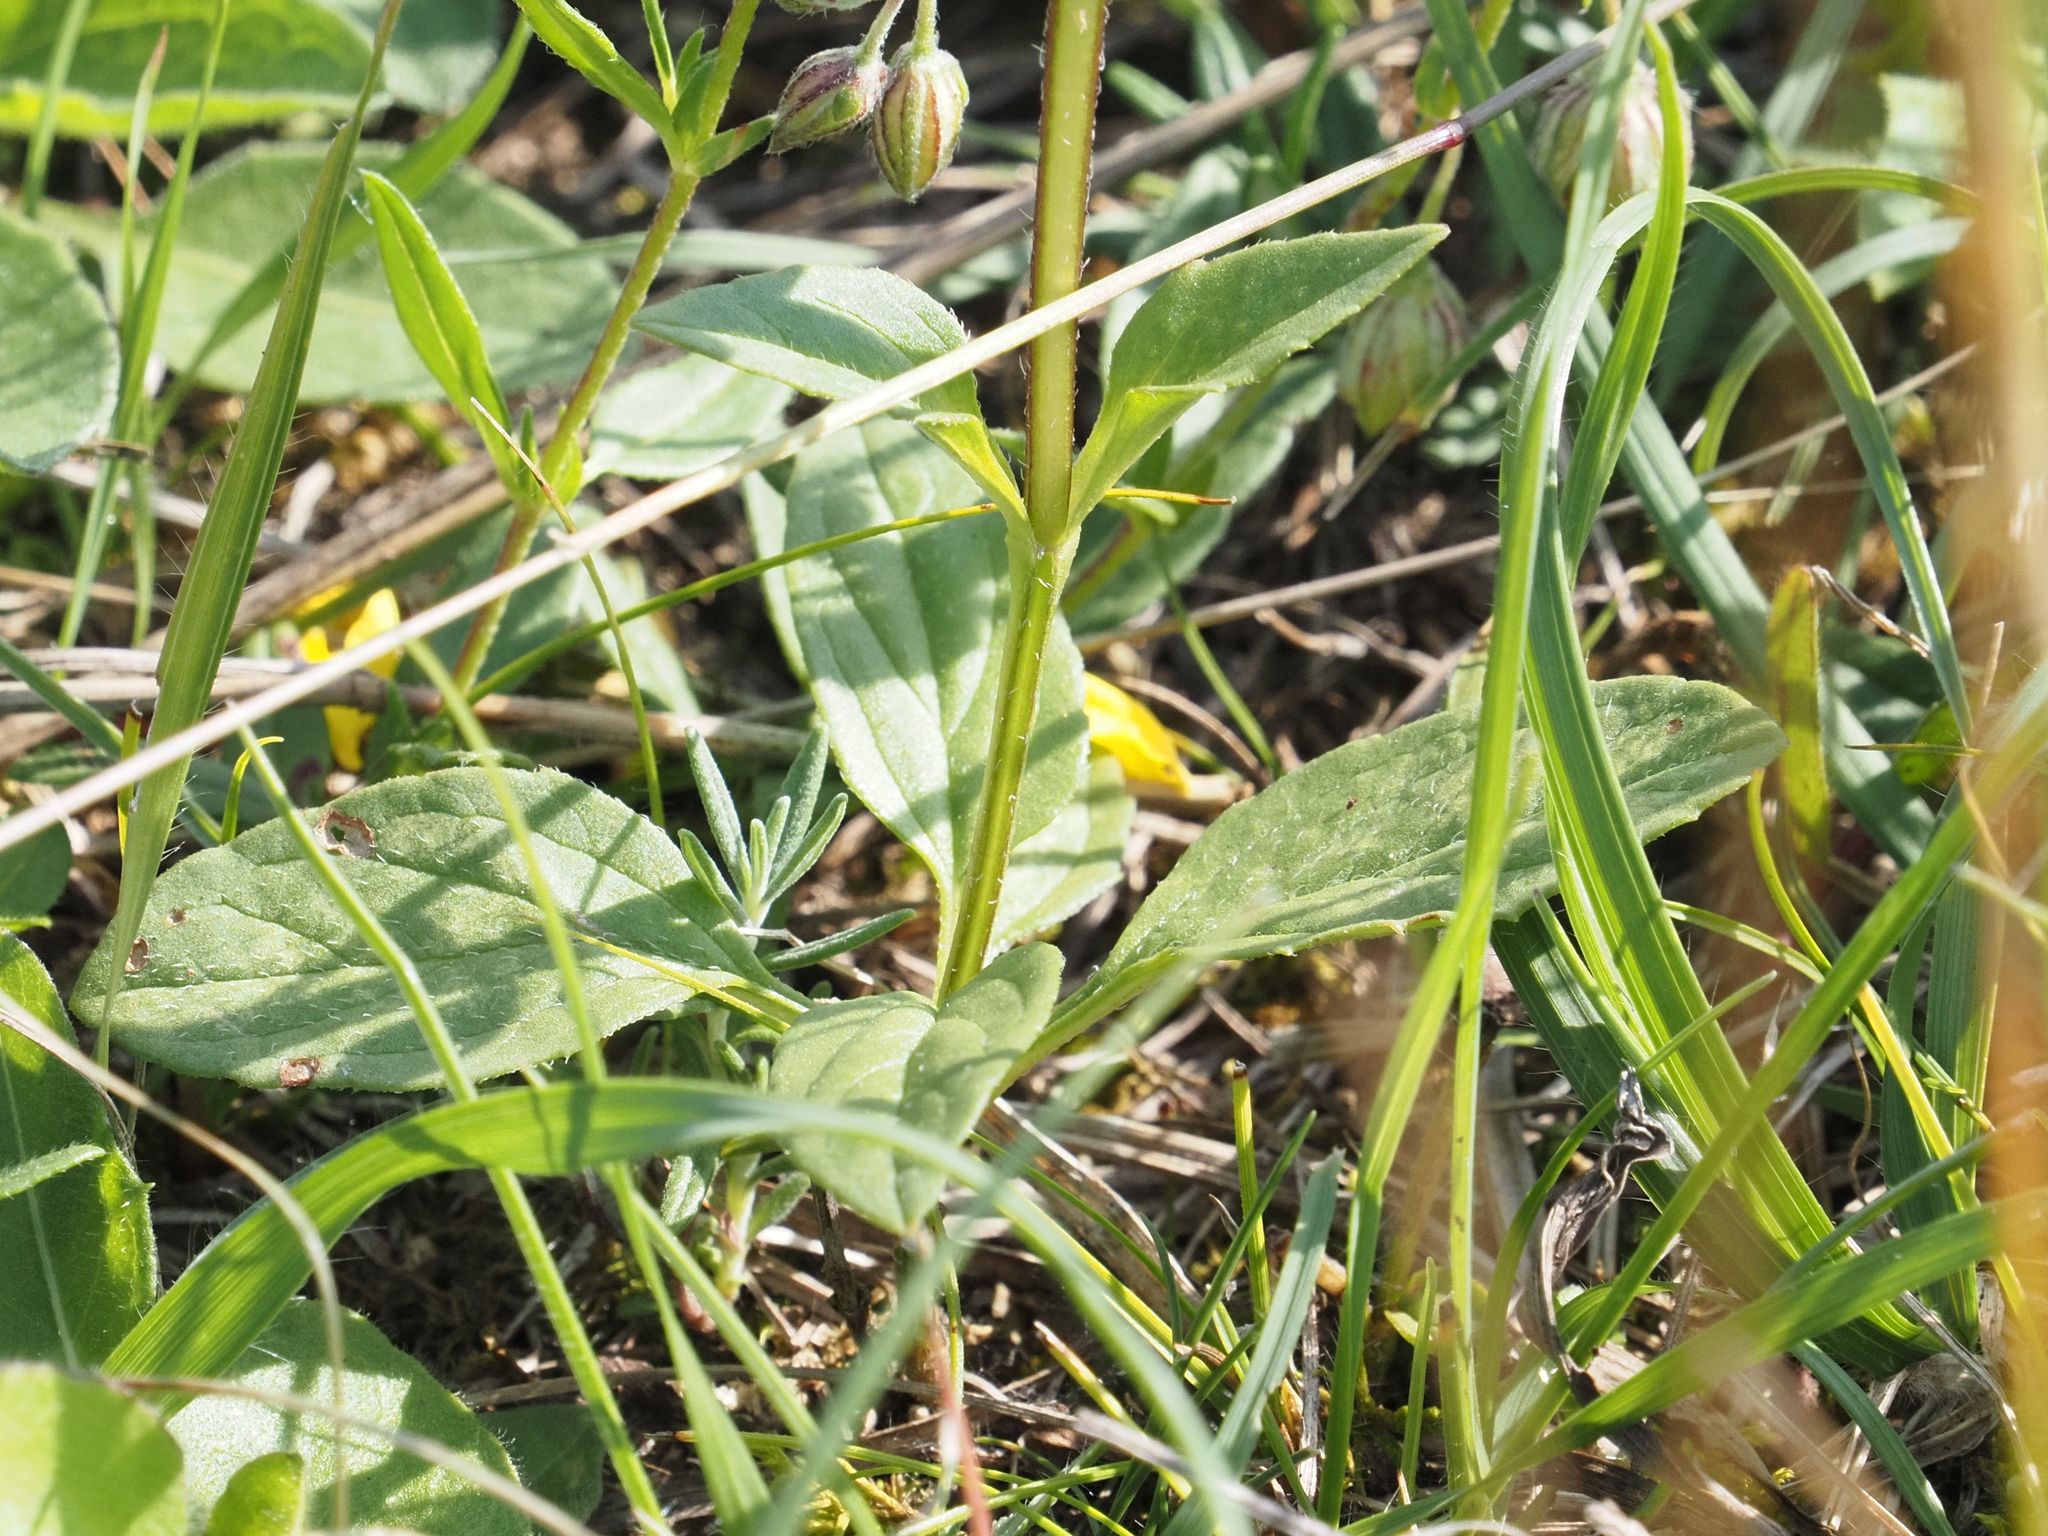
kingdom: Plantae
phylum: Tracheophyta
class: Magnoliopsida
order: Lamiales
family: Lamiaceae
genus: Prunella
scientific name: Prunella grandiflora
